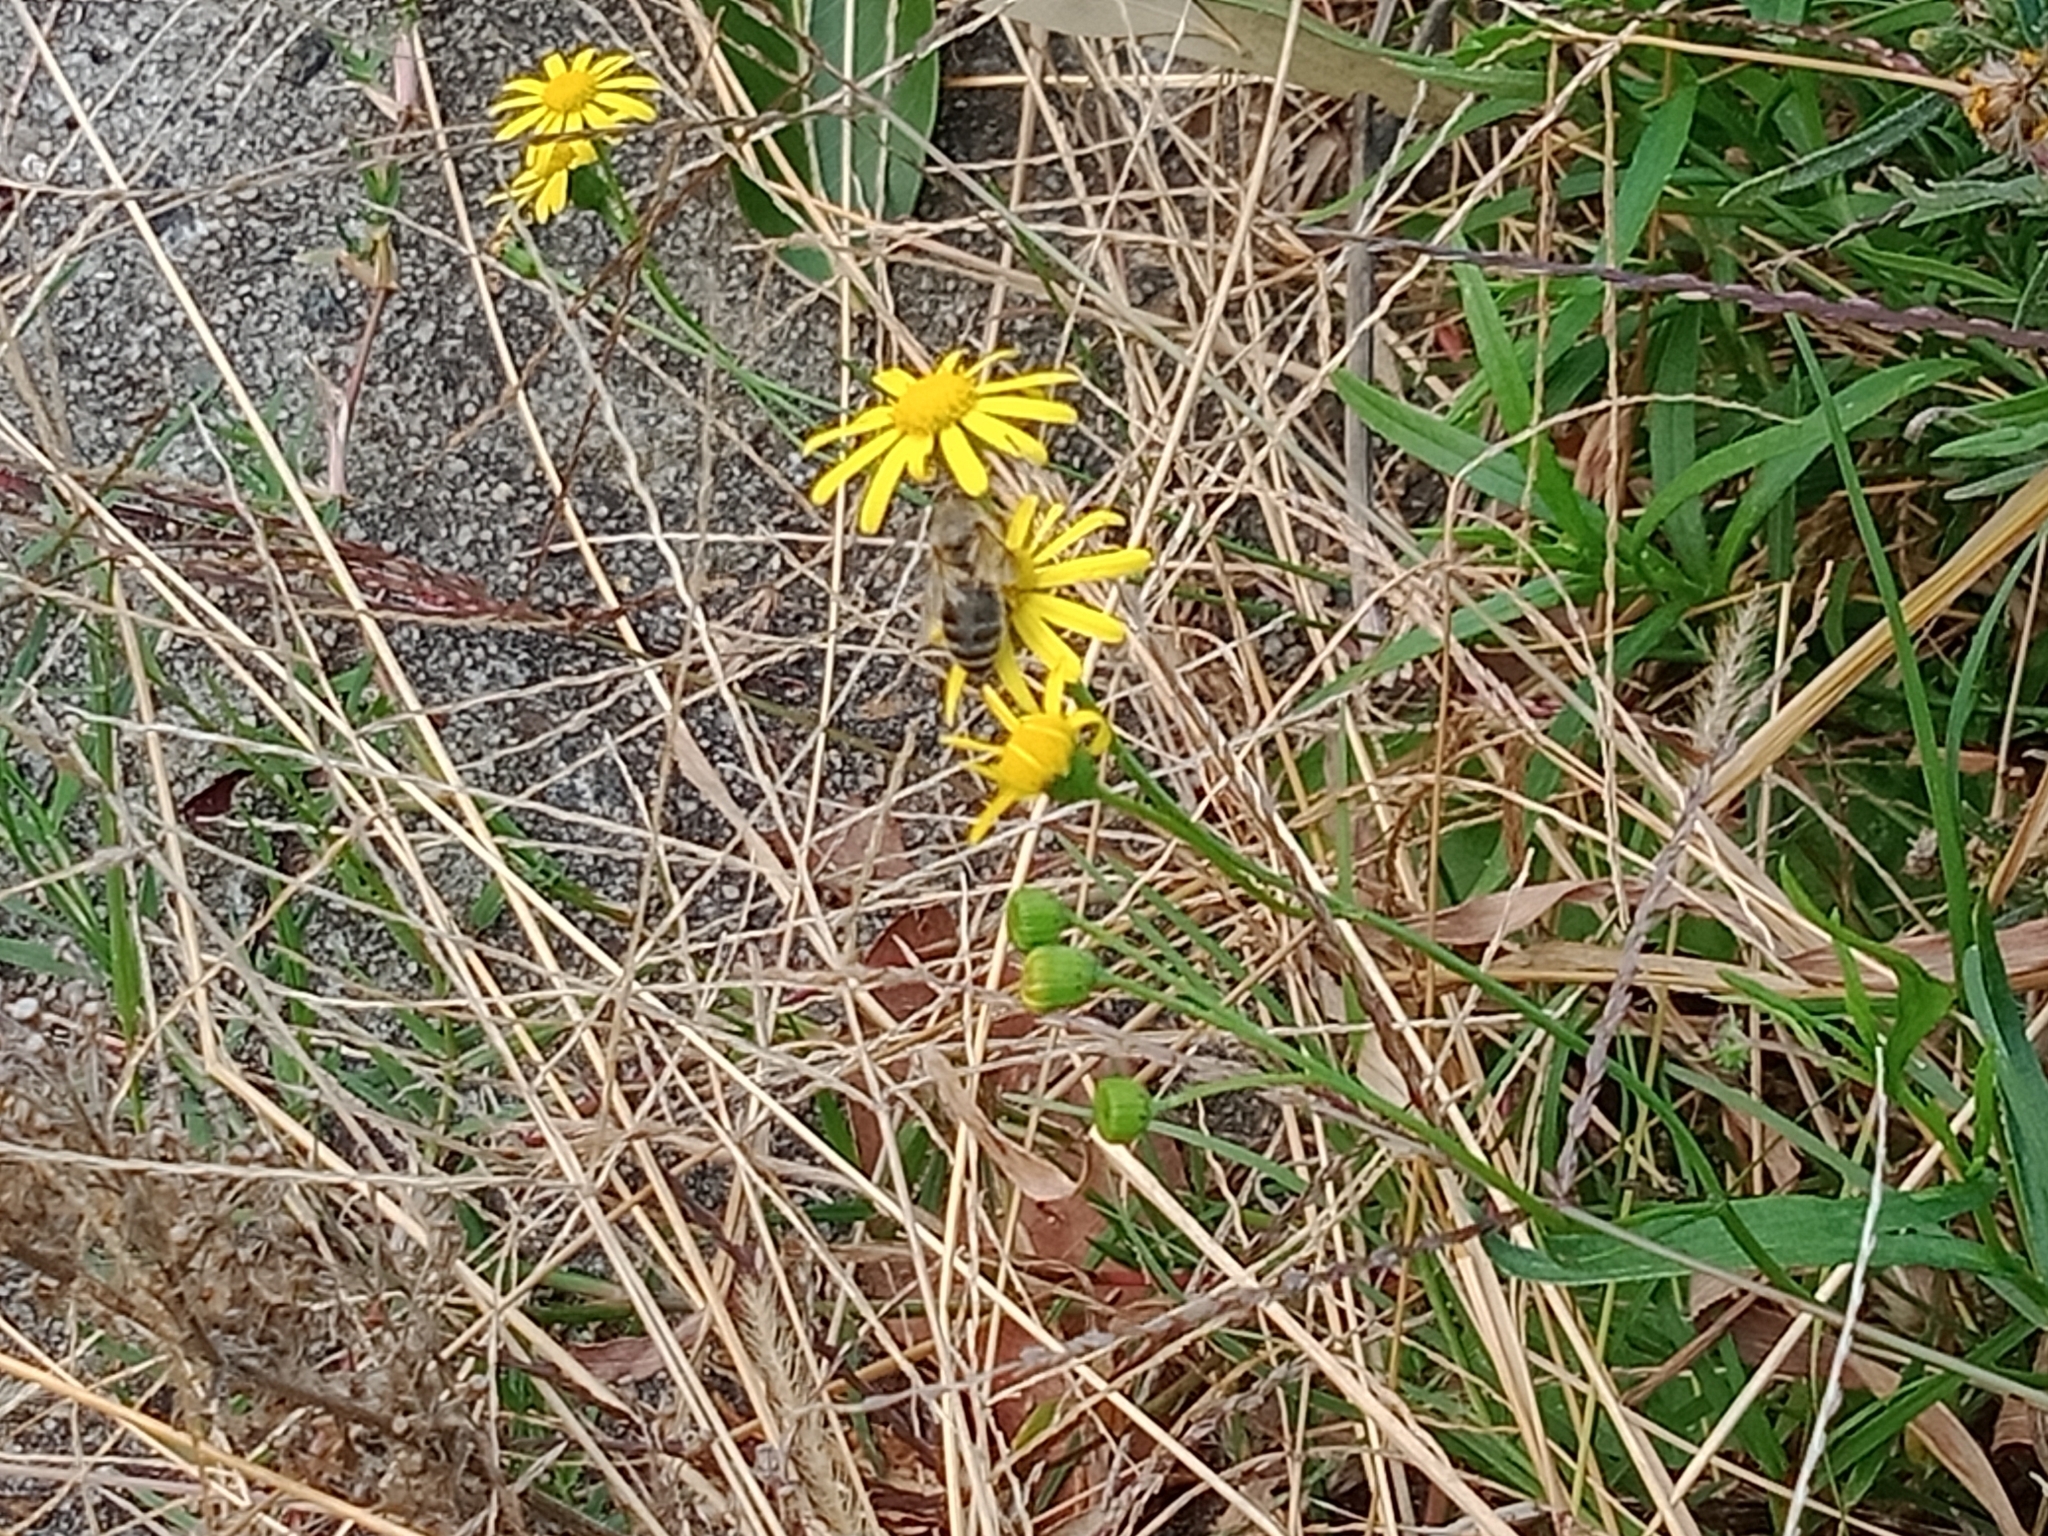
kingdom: Animalia
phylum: Arthropoda
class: Insecta
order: Hymenoptera
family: Apidae
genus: Apis
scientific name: Apis mellifera
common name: Honey bee
